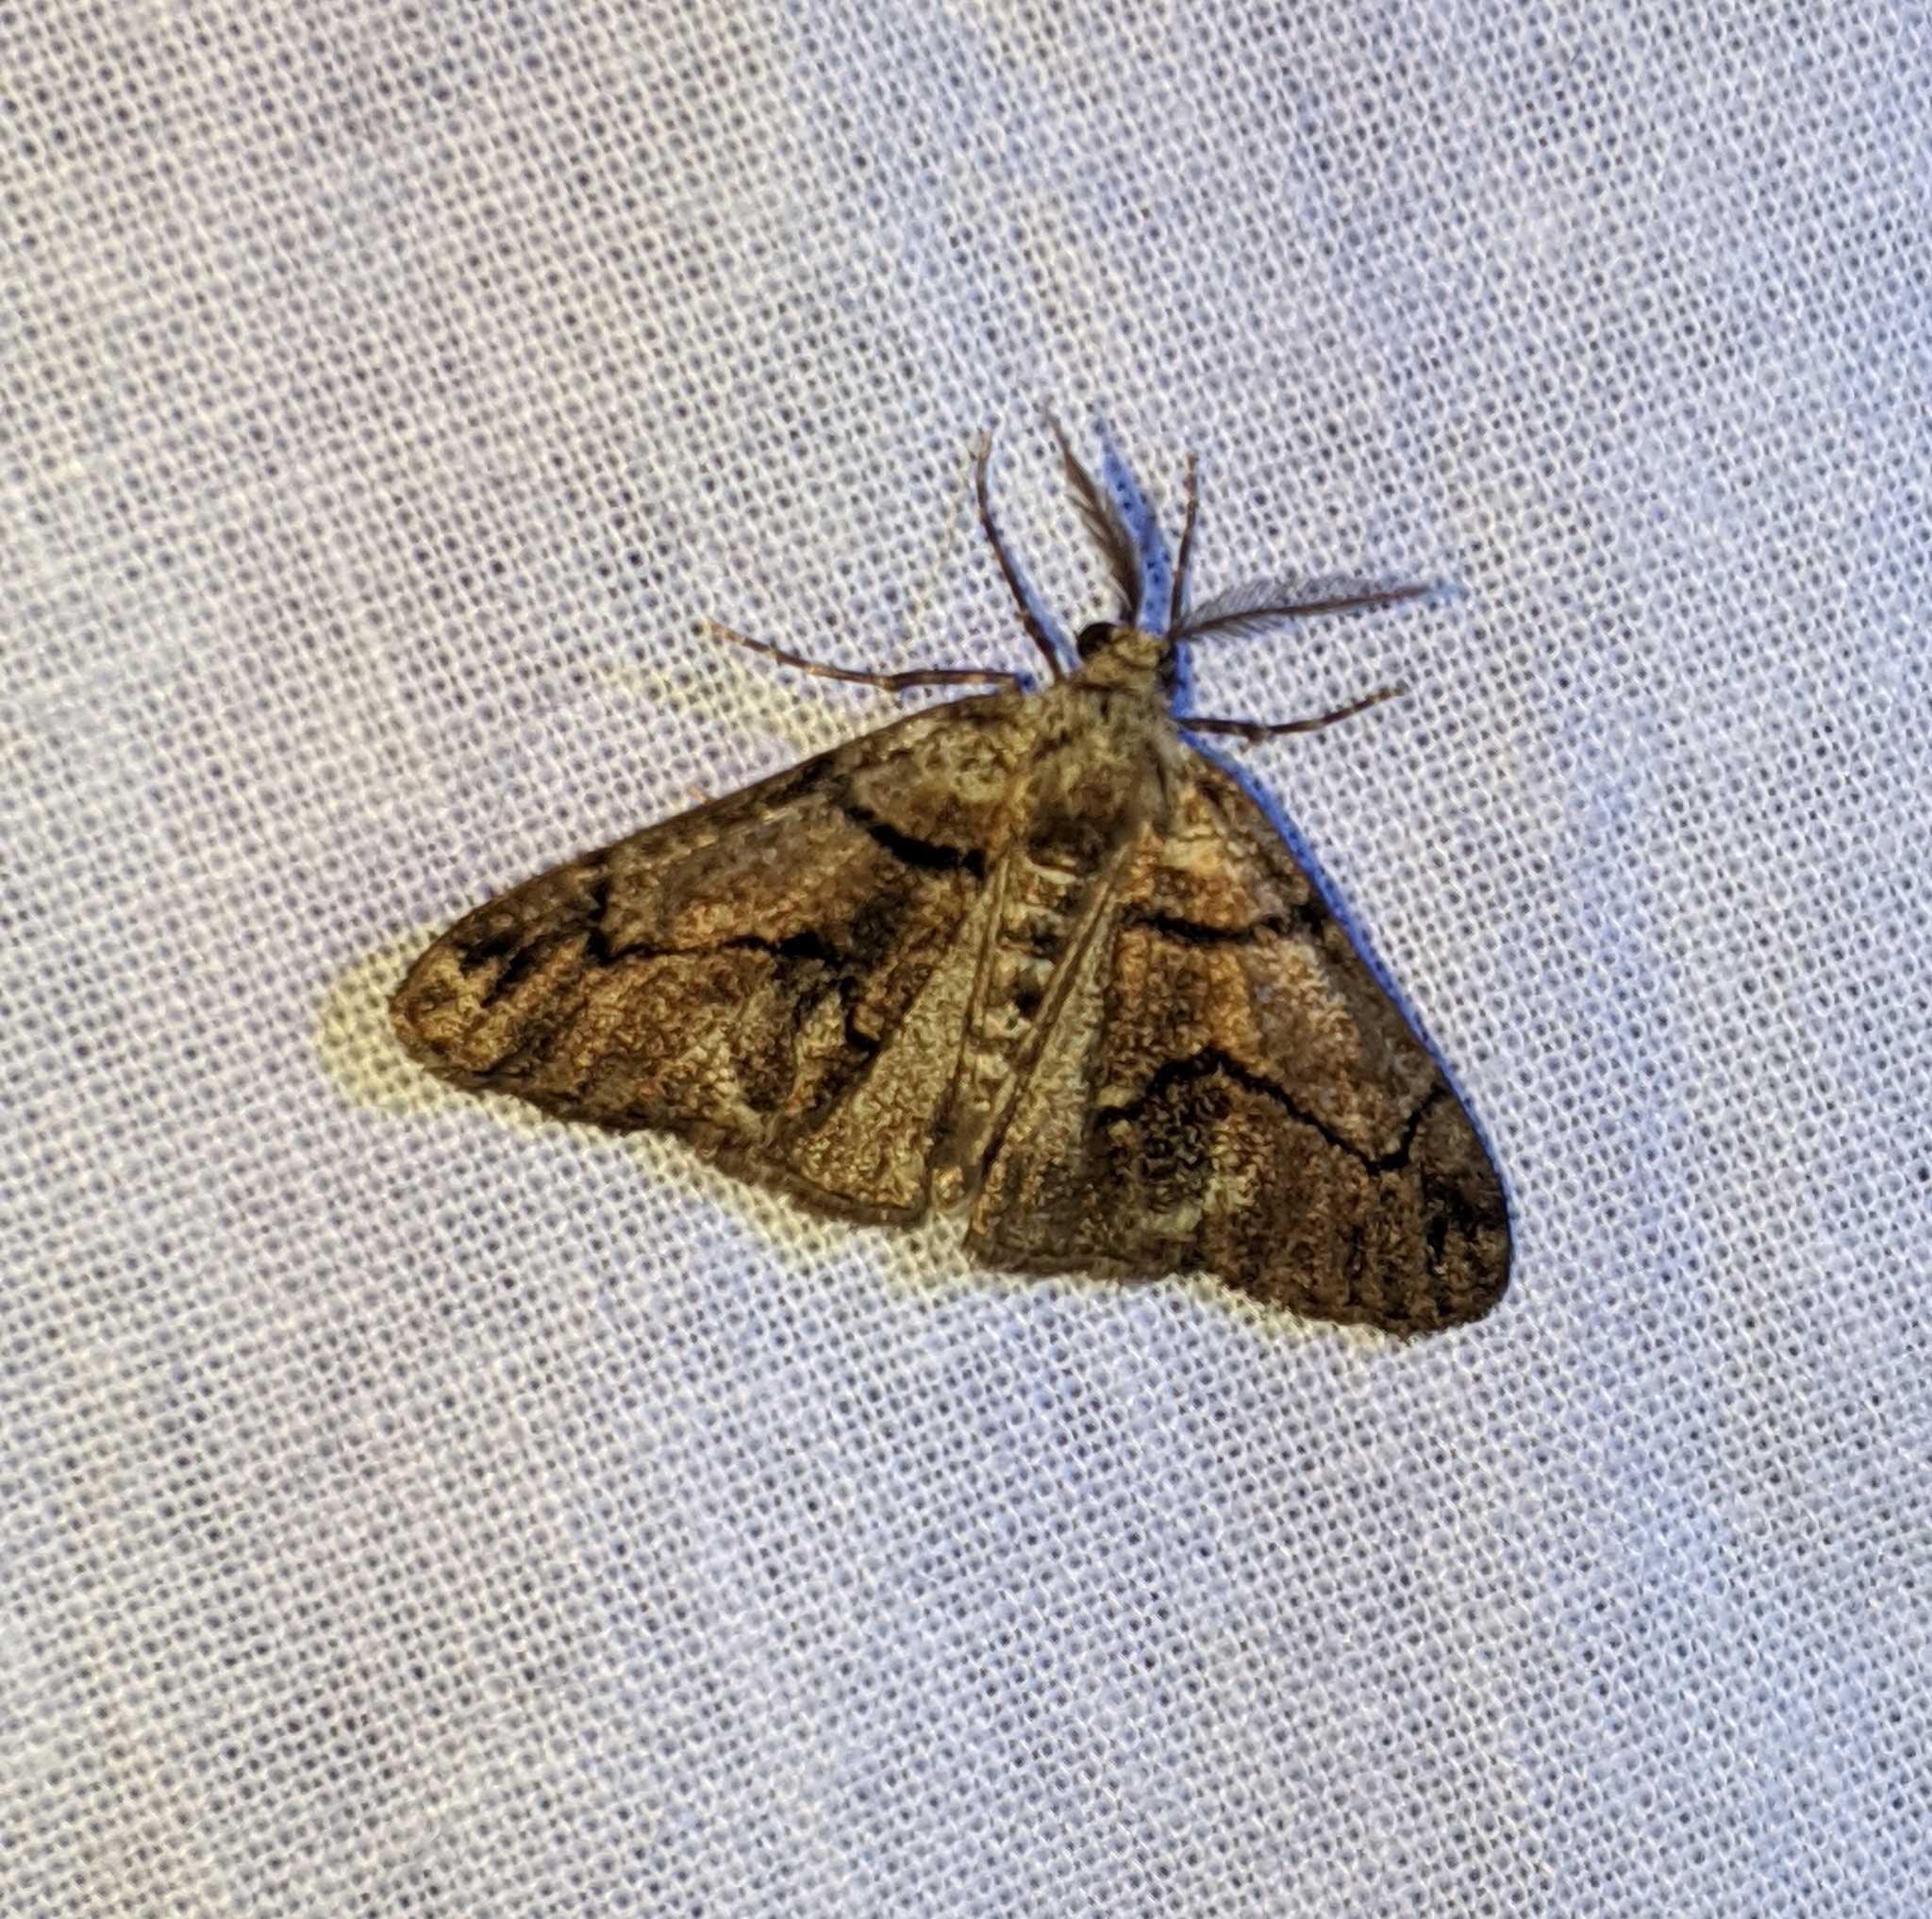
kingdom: Animalia
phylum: Arthropoda
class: Insecta
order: Lepidoptera
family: Geometridae
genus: Gabriola
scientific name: Gabriola dyari
